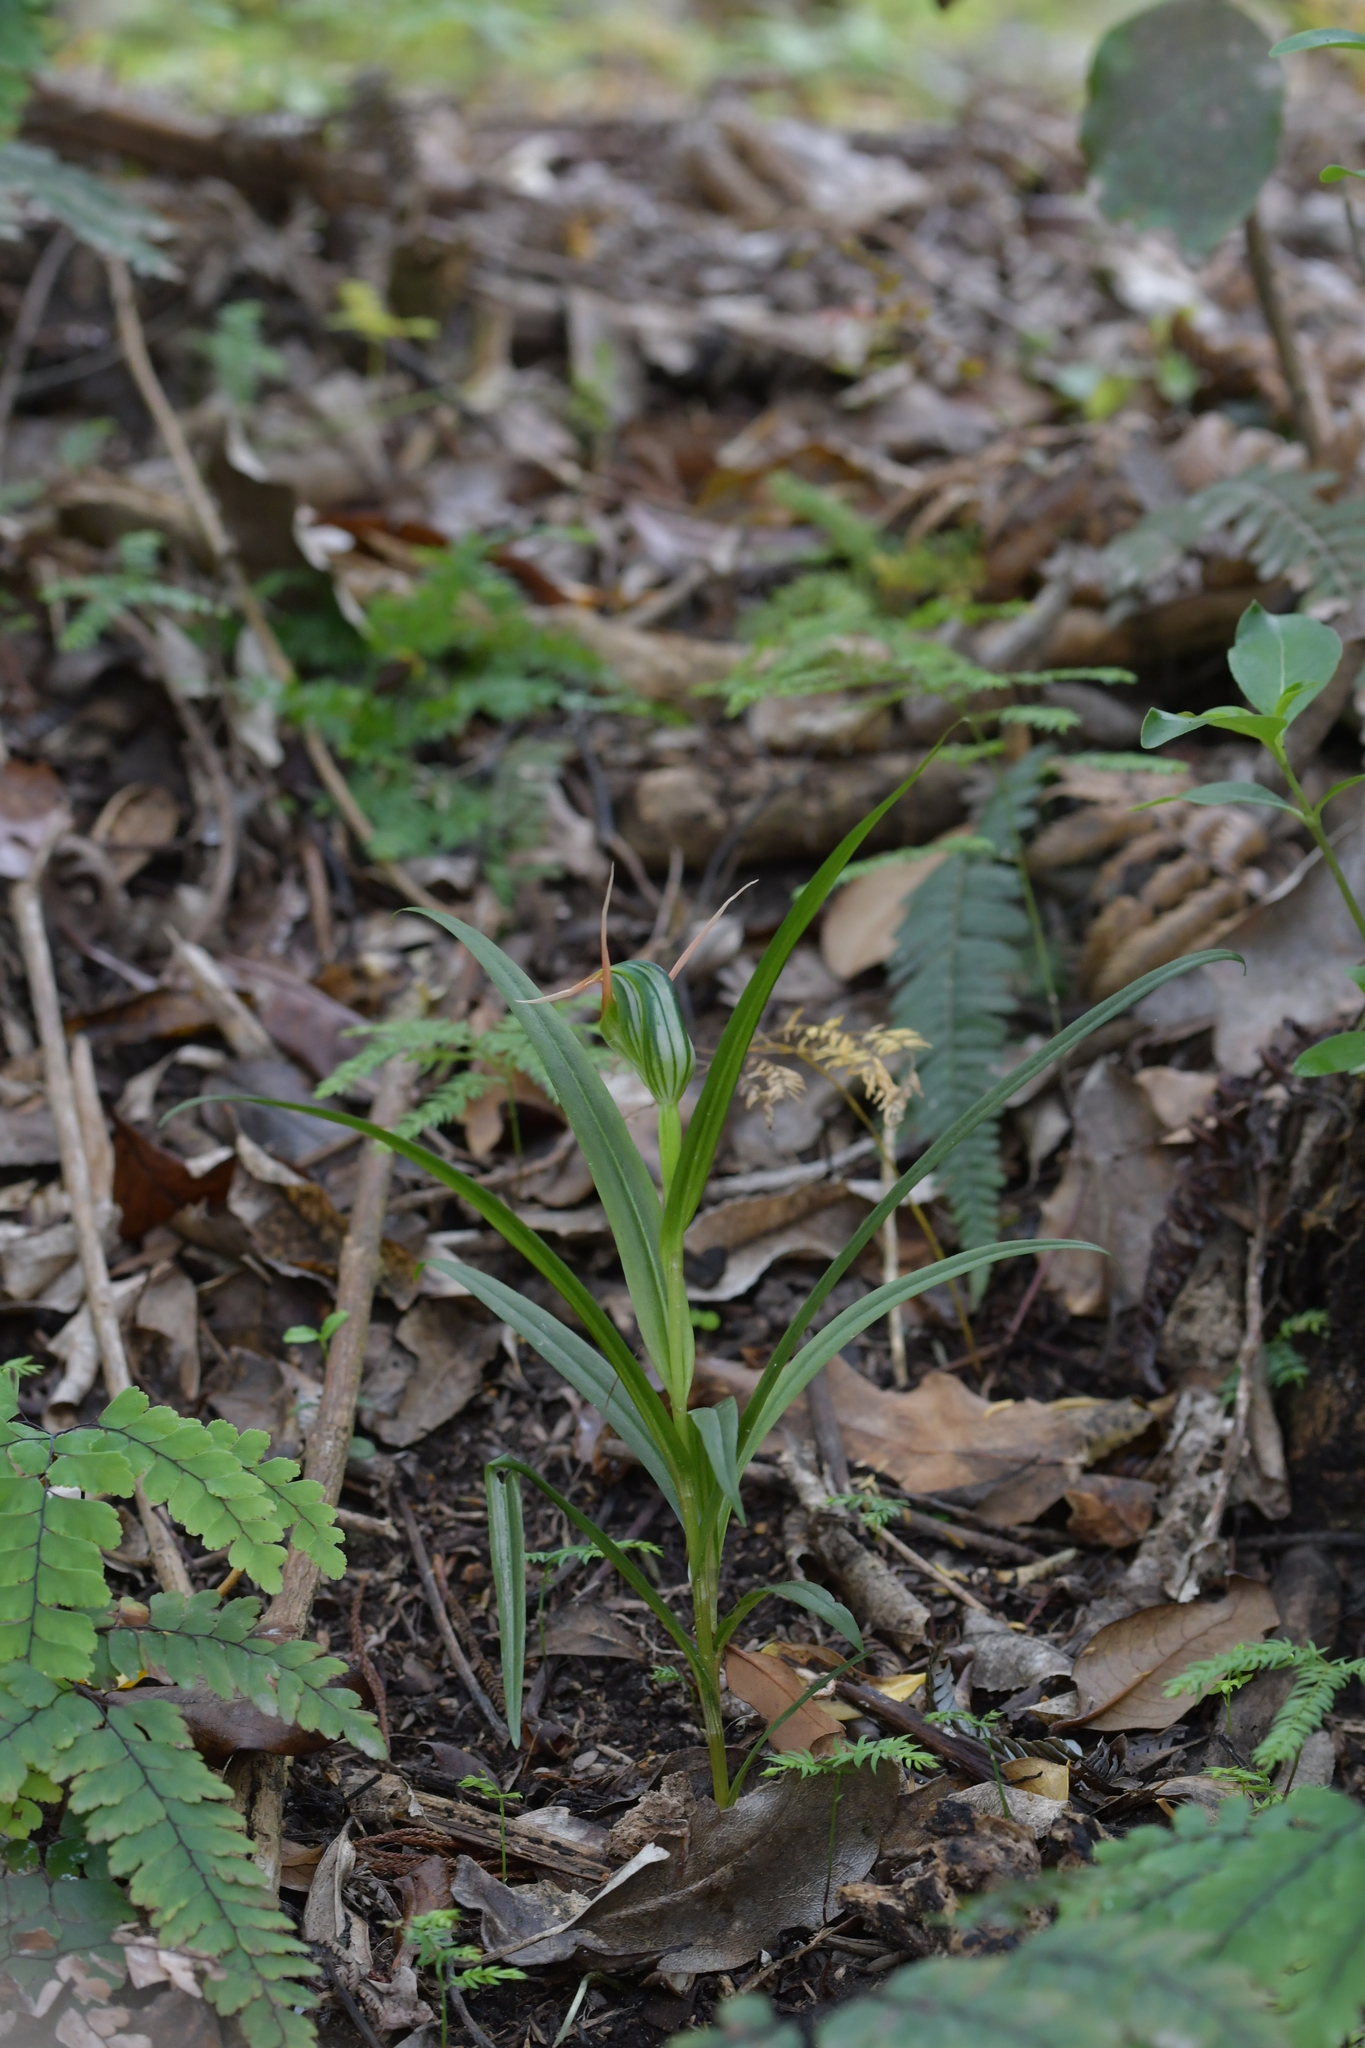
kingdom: Plantae
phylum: Tracheophyta
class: Liliopsida
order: Asparagales
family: Orchidaceae
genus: Pterostylis
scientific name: Pterostylis banksii
